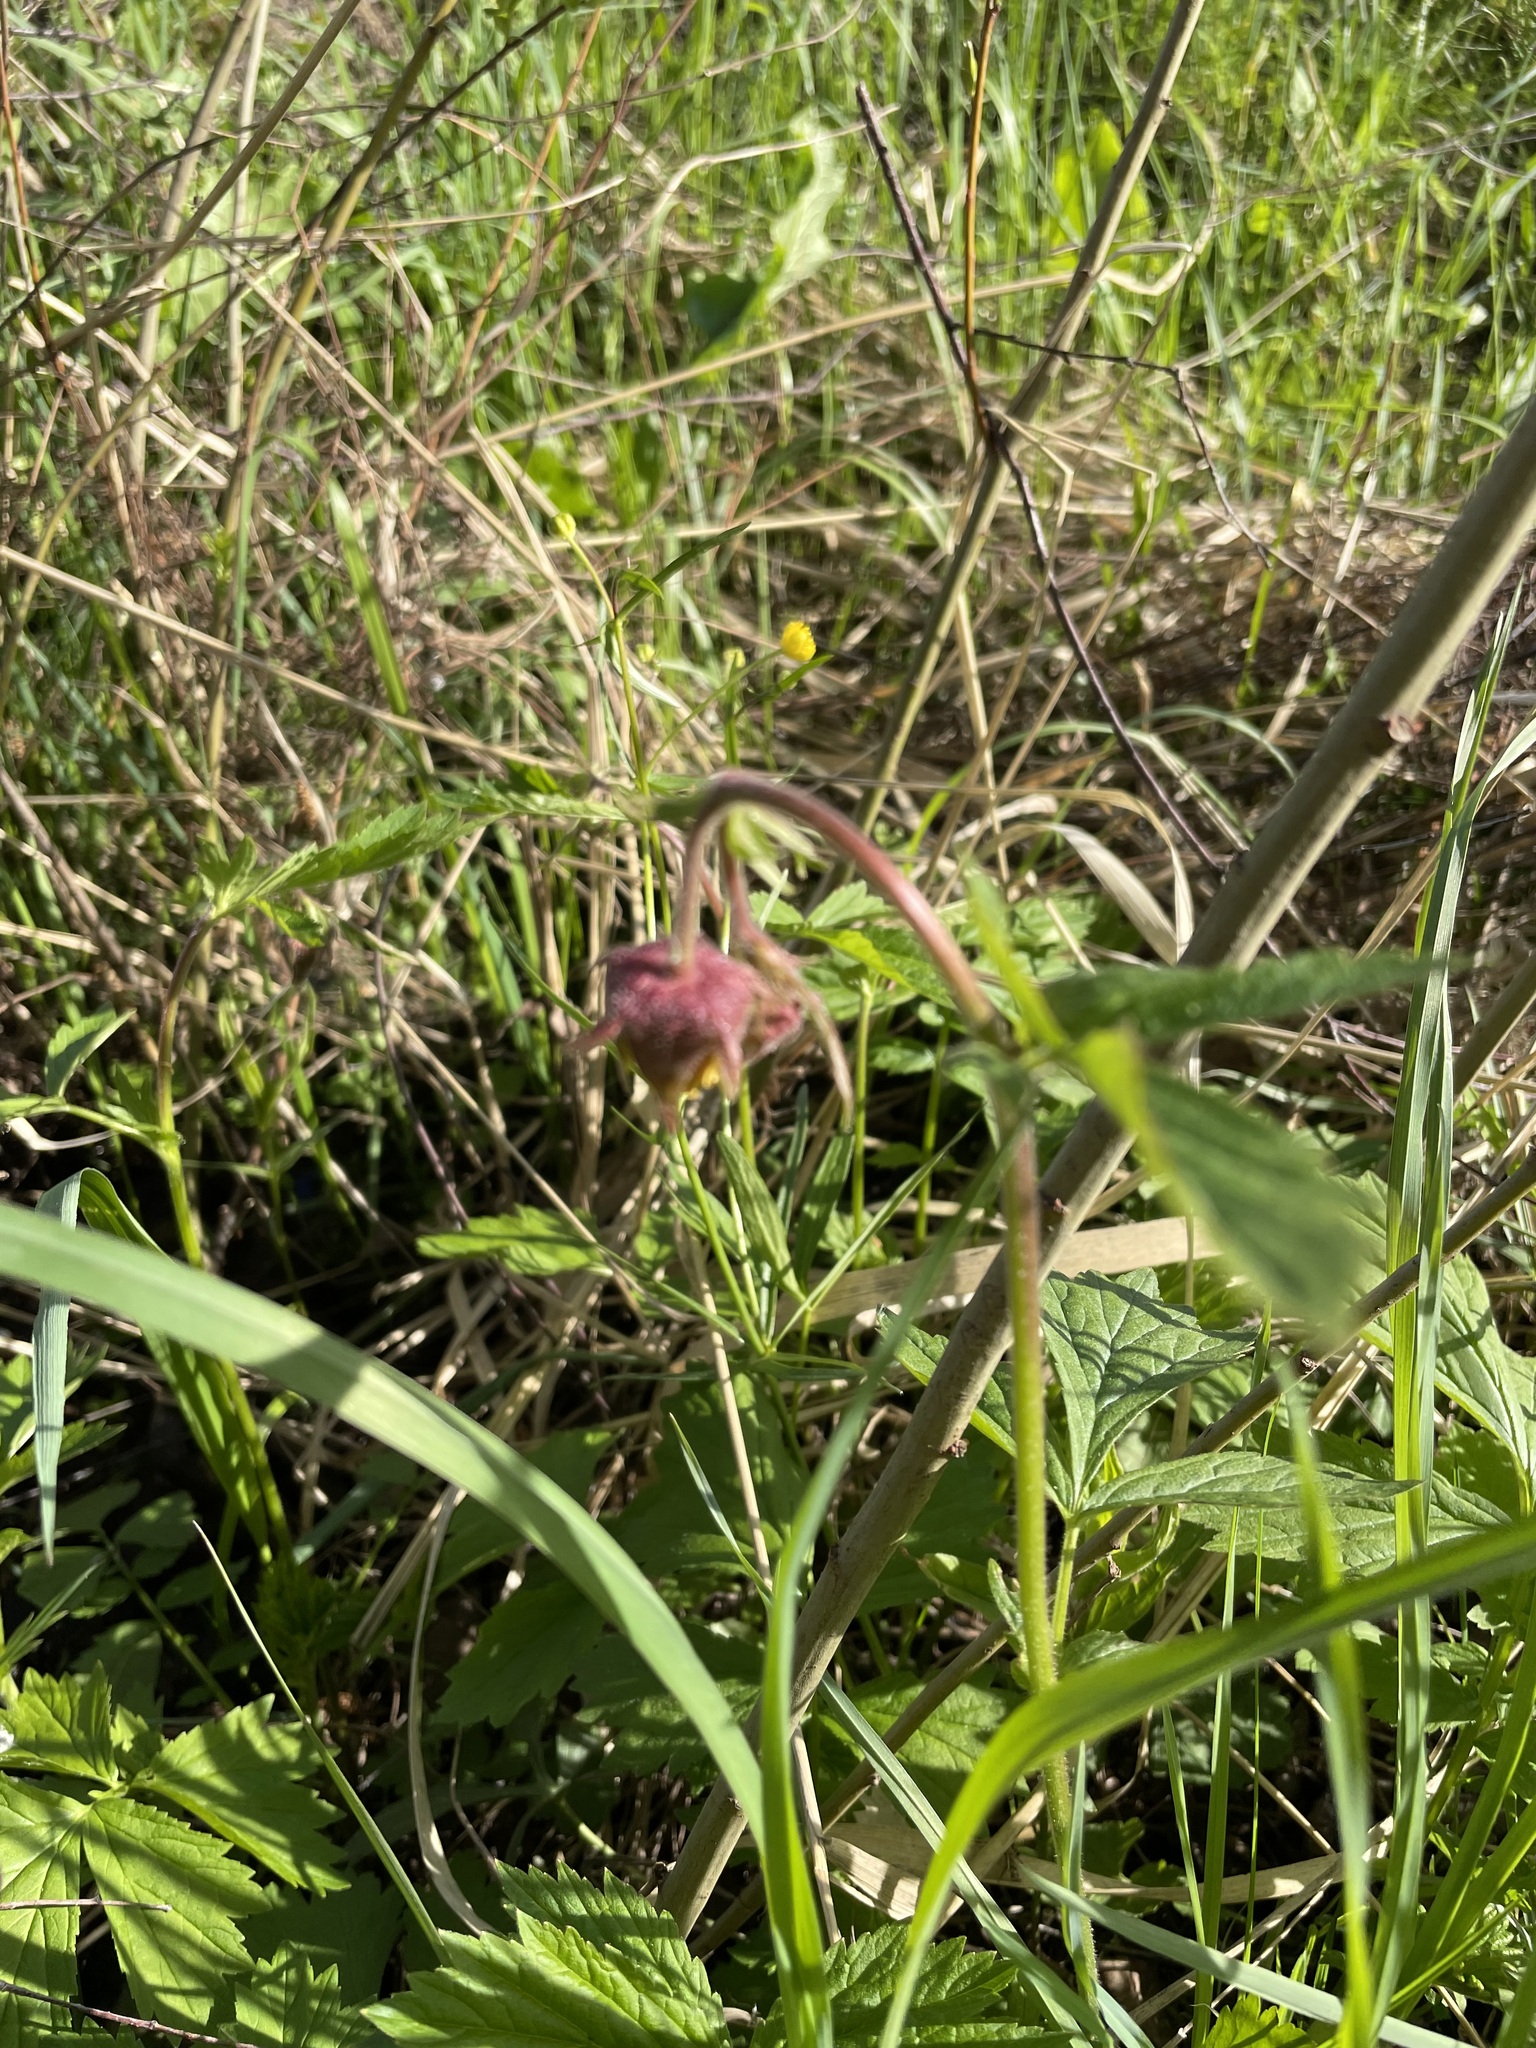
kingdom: Plantae
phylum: Tracheophyta
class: Magnoliopsida
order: Rosales
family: Rosaceae
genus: Geum
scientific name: Geum rivale
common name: Water avens
